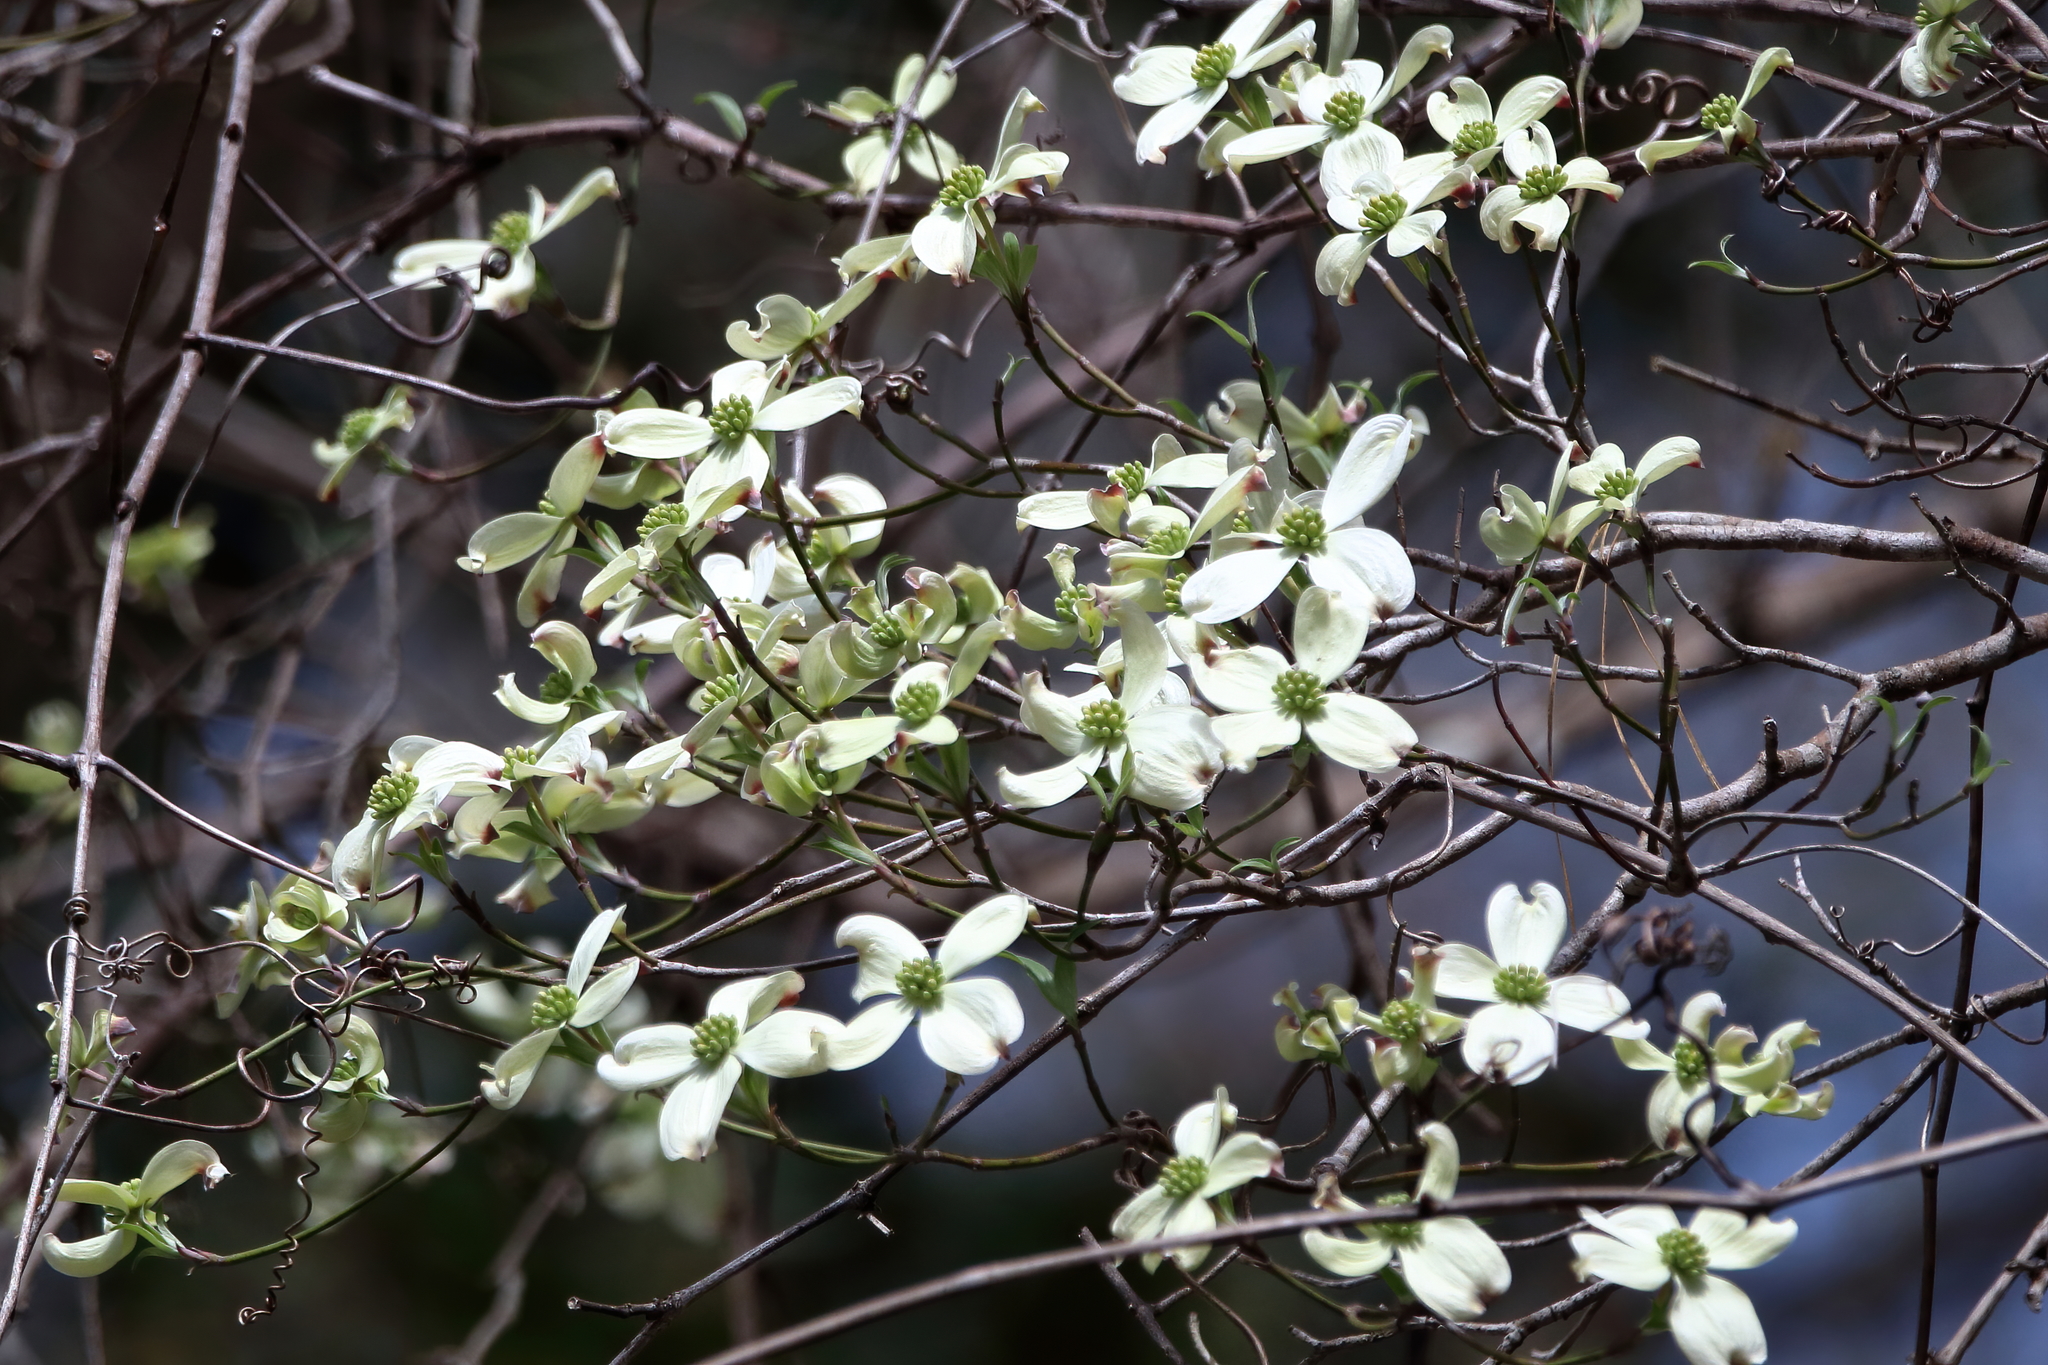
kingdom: Plantae
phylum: Tracheophyta
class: Magnoliopsida
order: Cornales
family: Cornaceae
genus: Cornus
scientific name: Cornus florida
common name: Flowering dogwood
